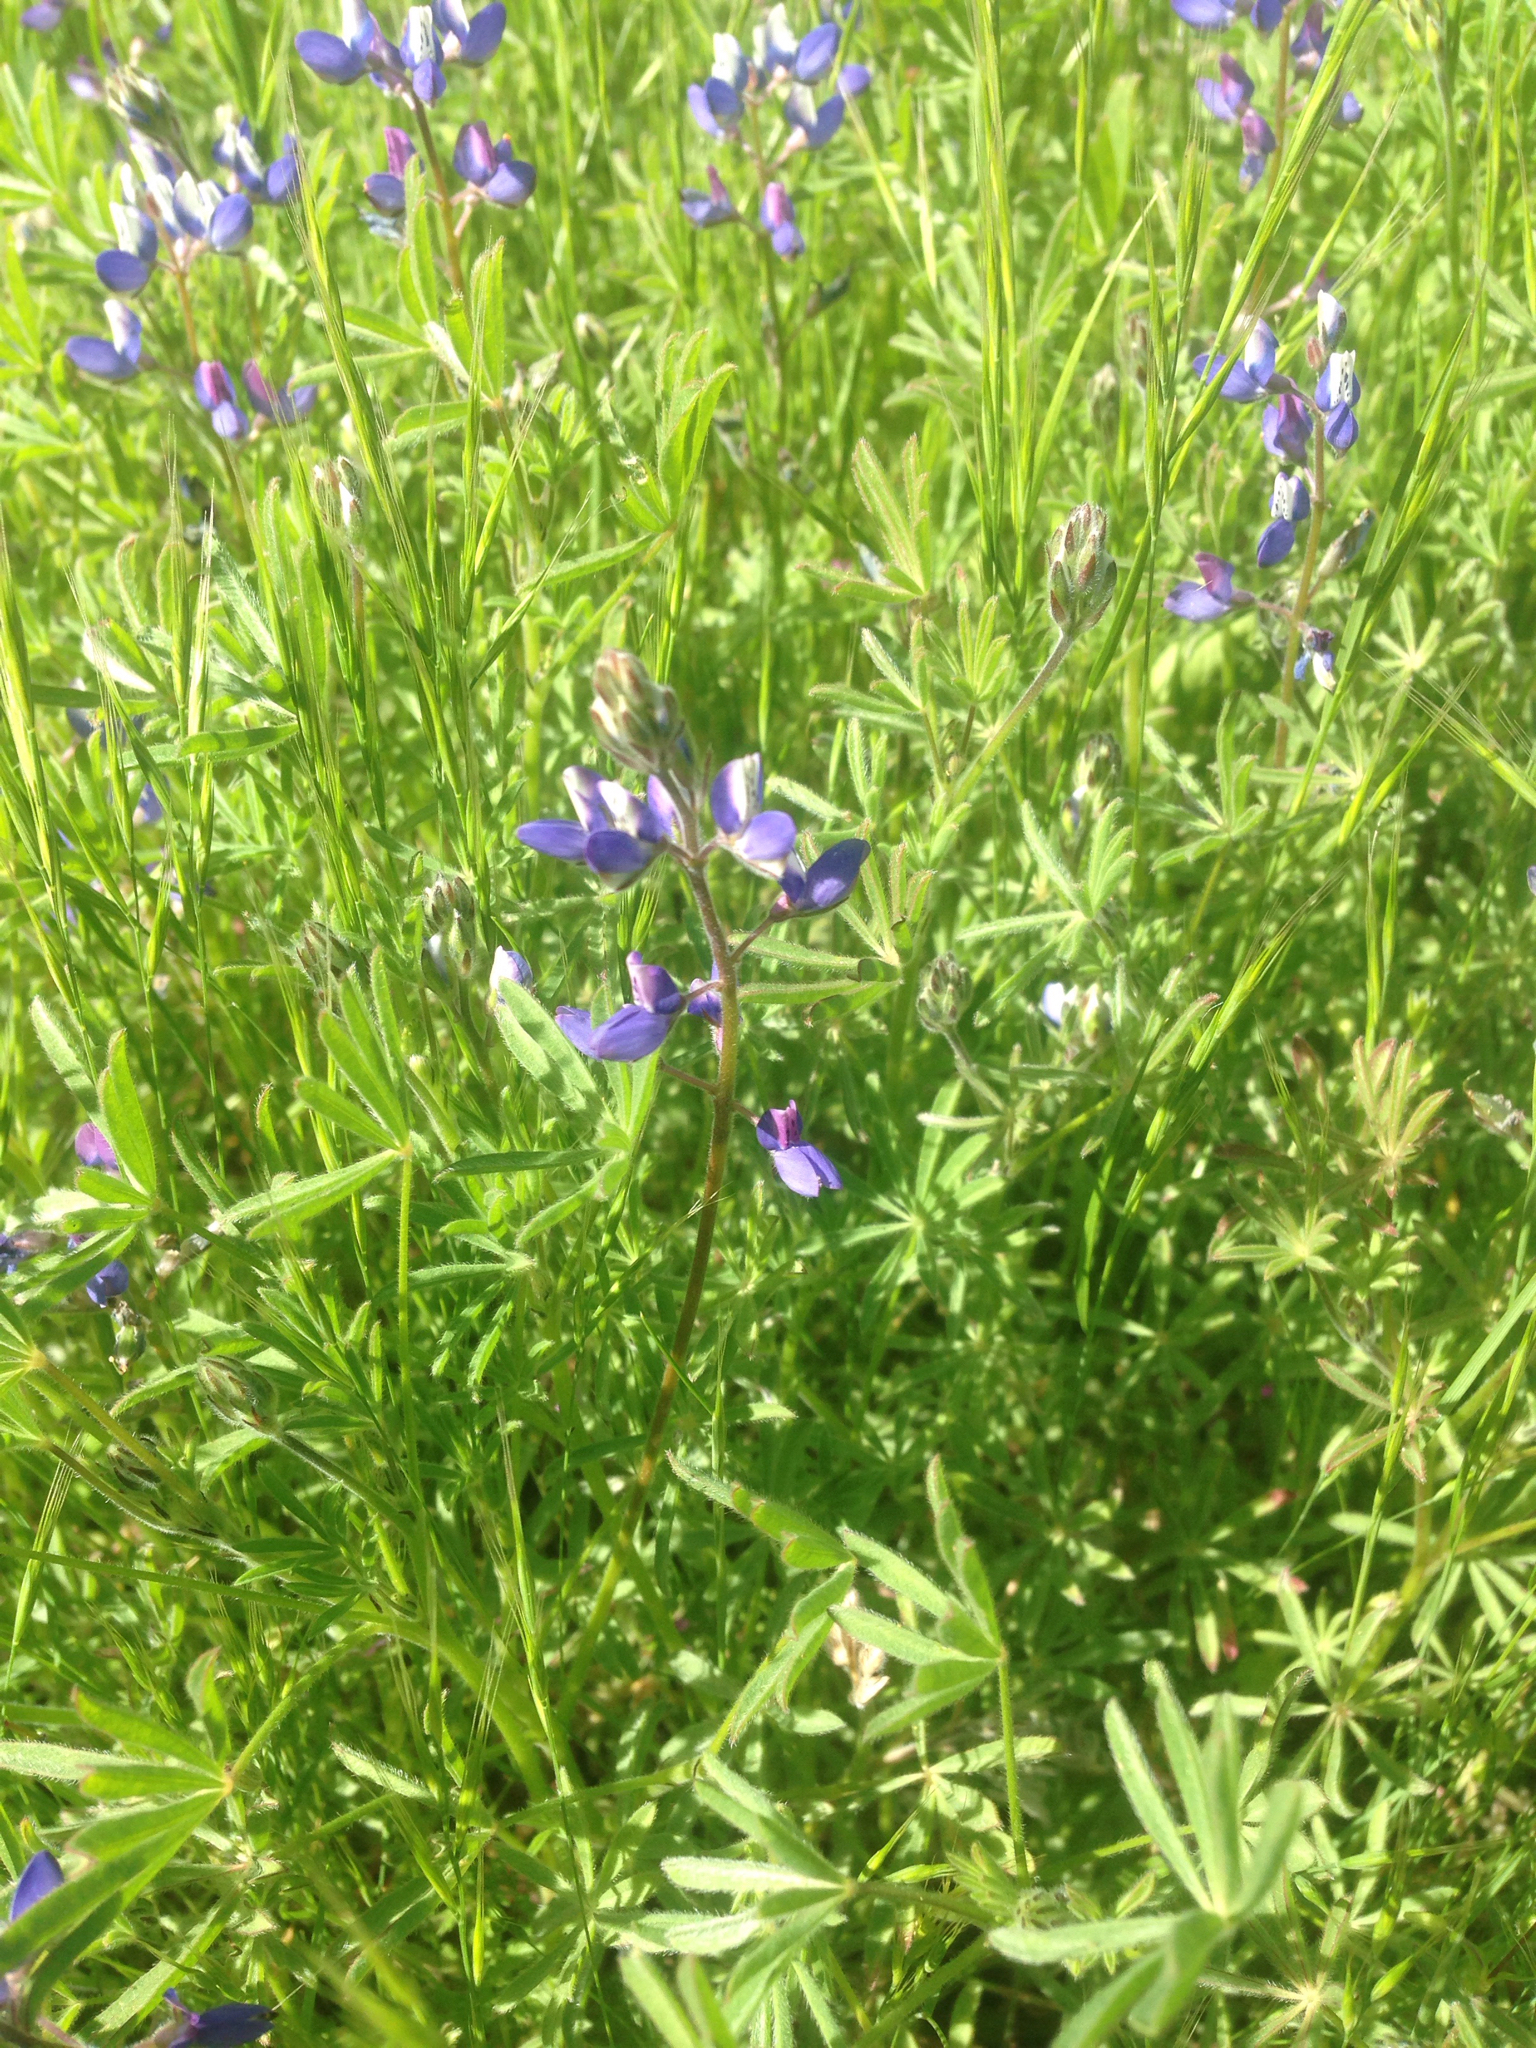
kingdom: Plantae
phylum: Tracheophyta
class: Magnoliopsida
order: Fabales
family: Fabaceae
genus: Lupinus
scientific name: Lupinus bicolor
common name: Miniature lupine
